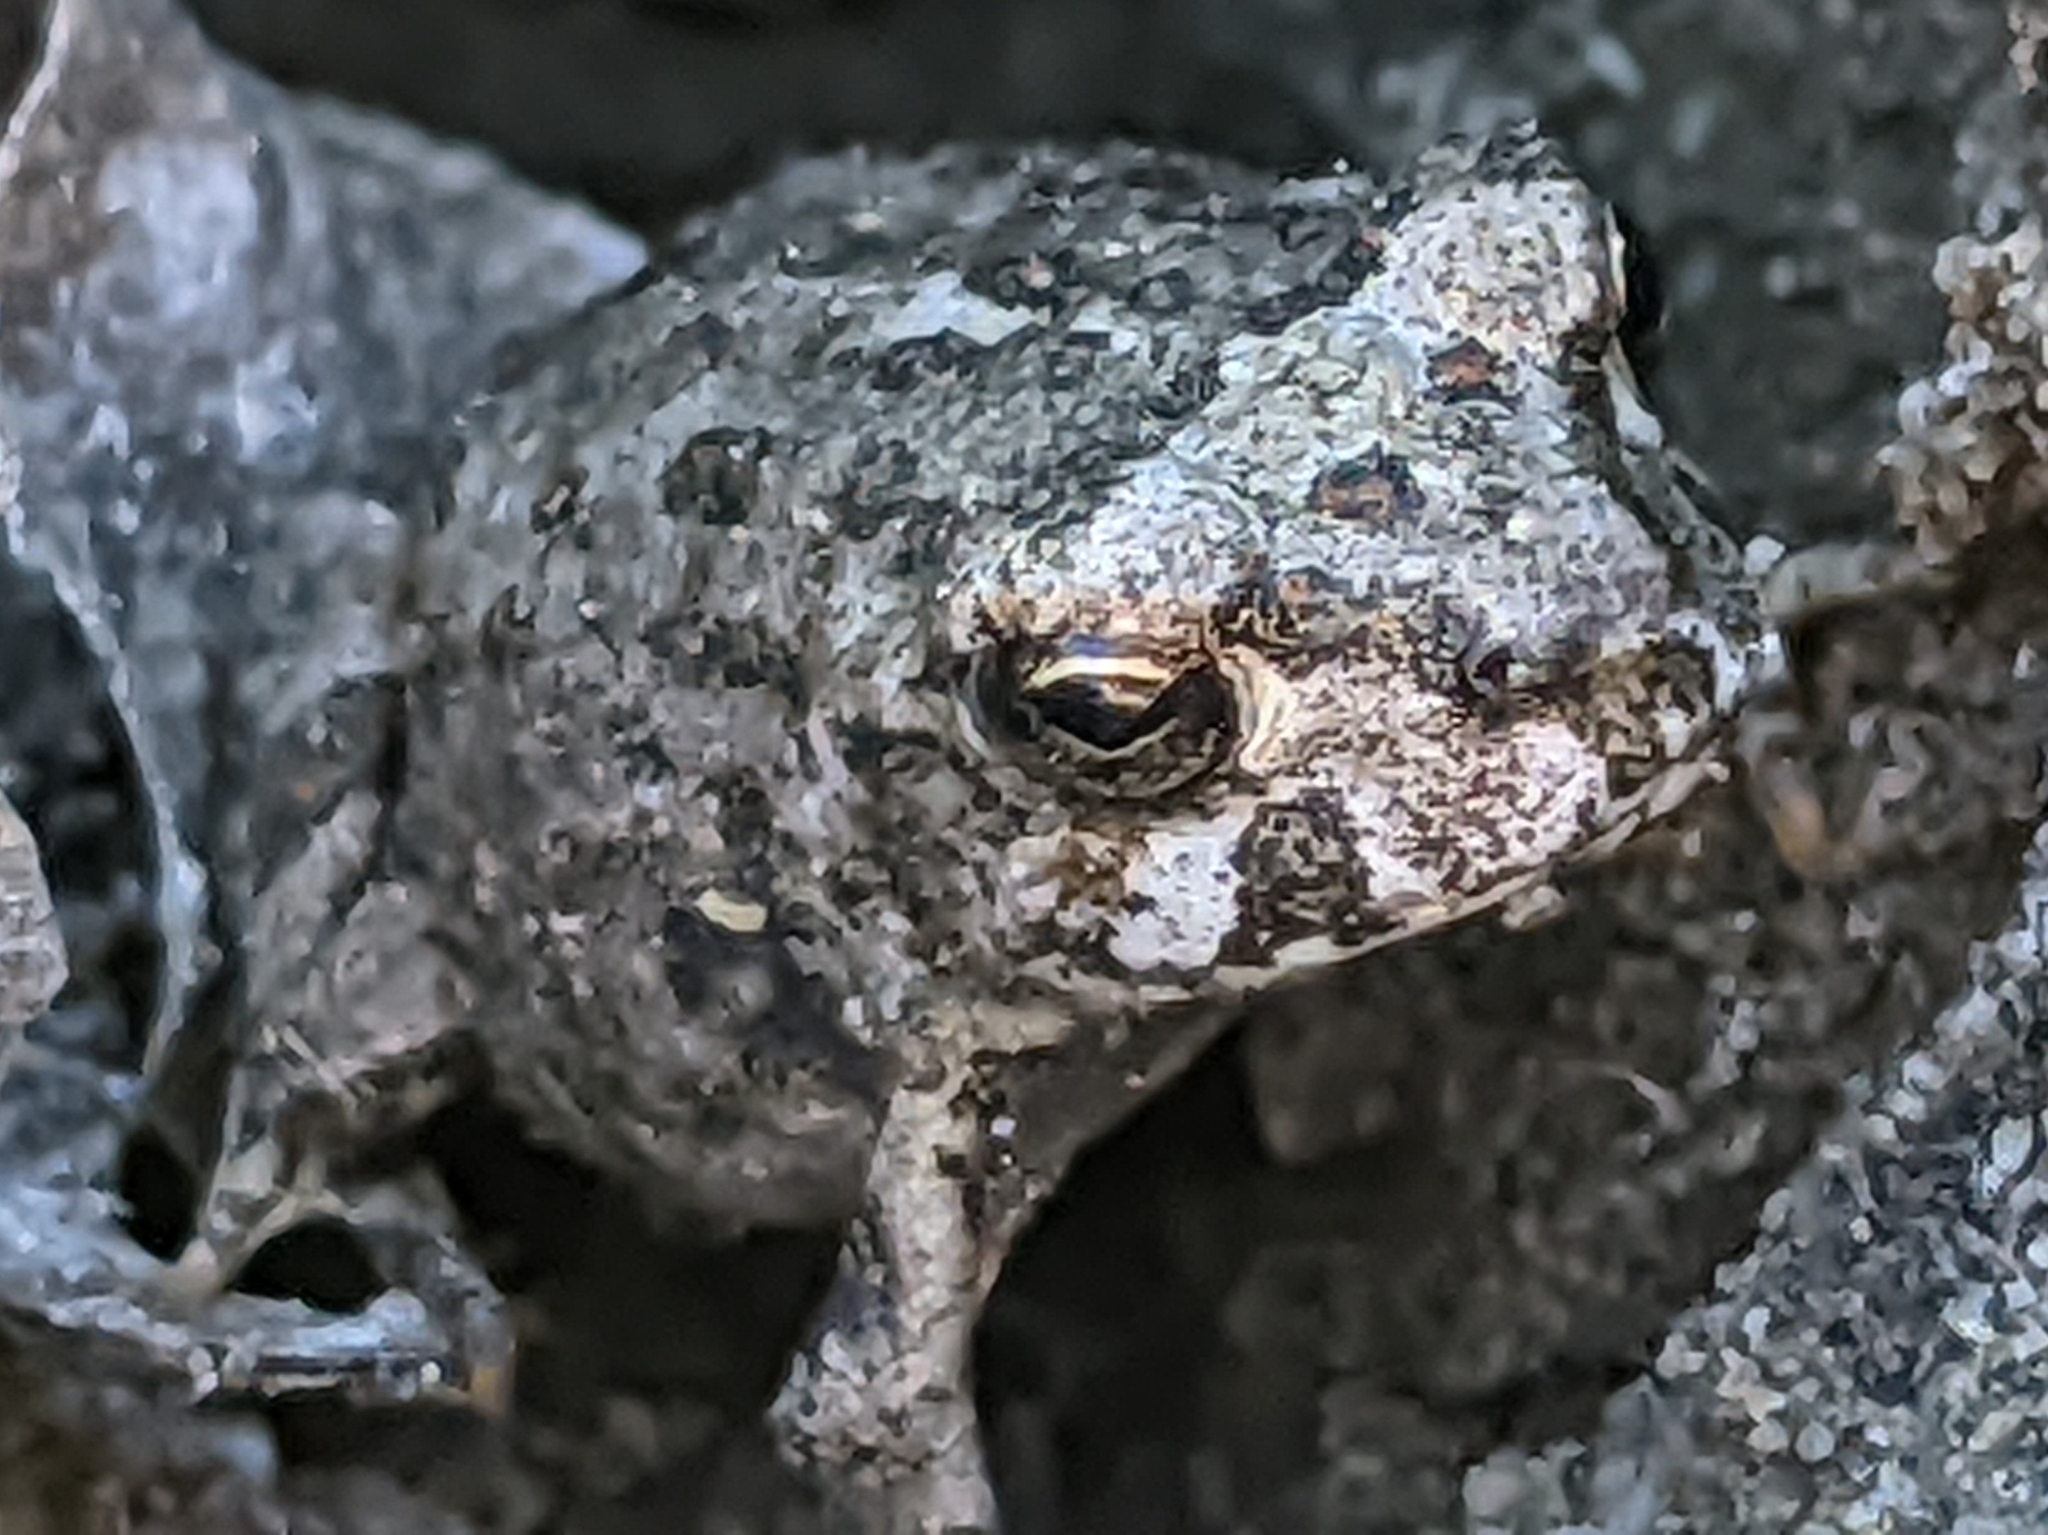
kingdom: Animalia
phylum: Chordata
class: Amphibia
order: Anura
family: Bufonidae
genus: Anaxyrus
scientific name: Anaxyrus boreas
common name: Western toad
